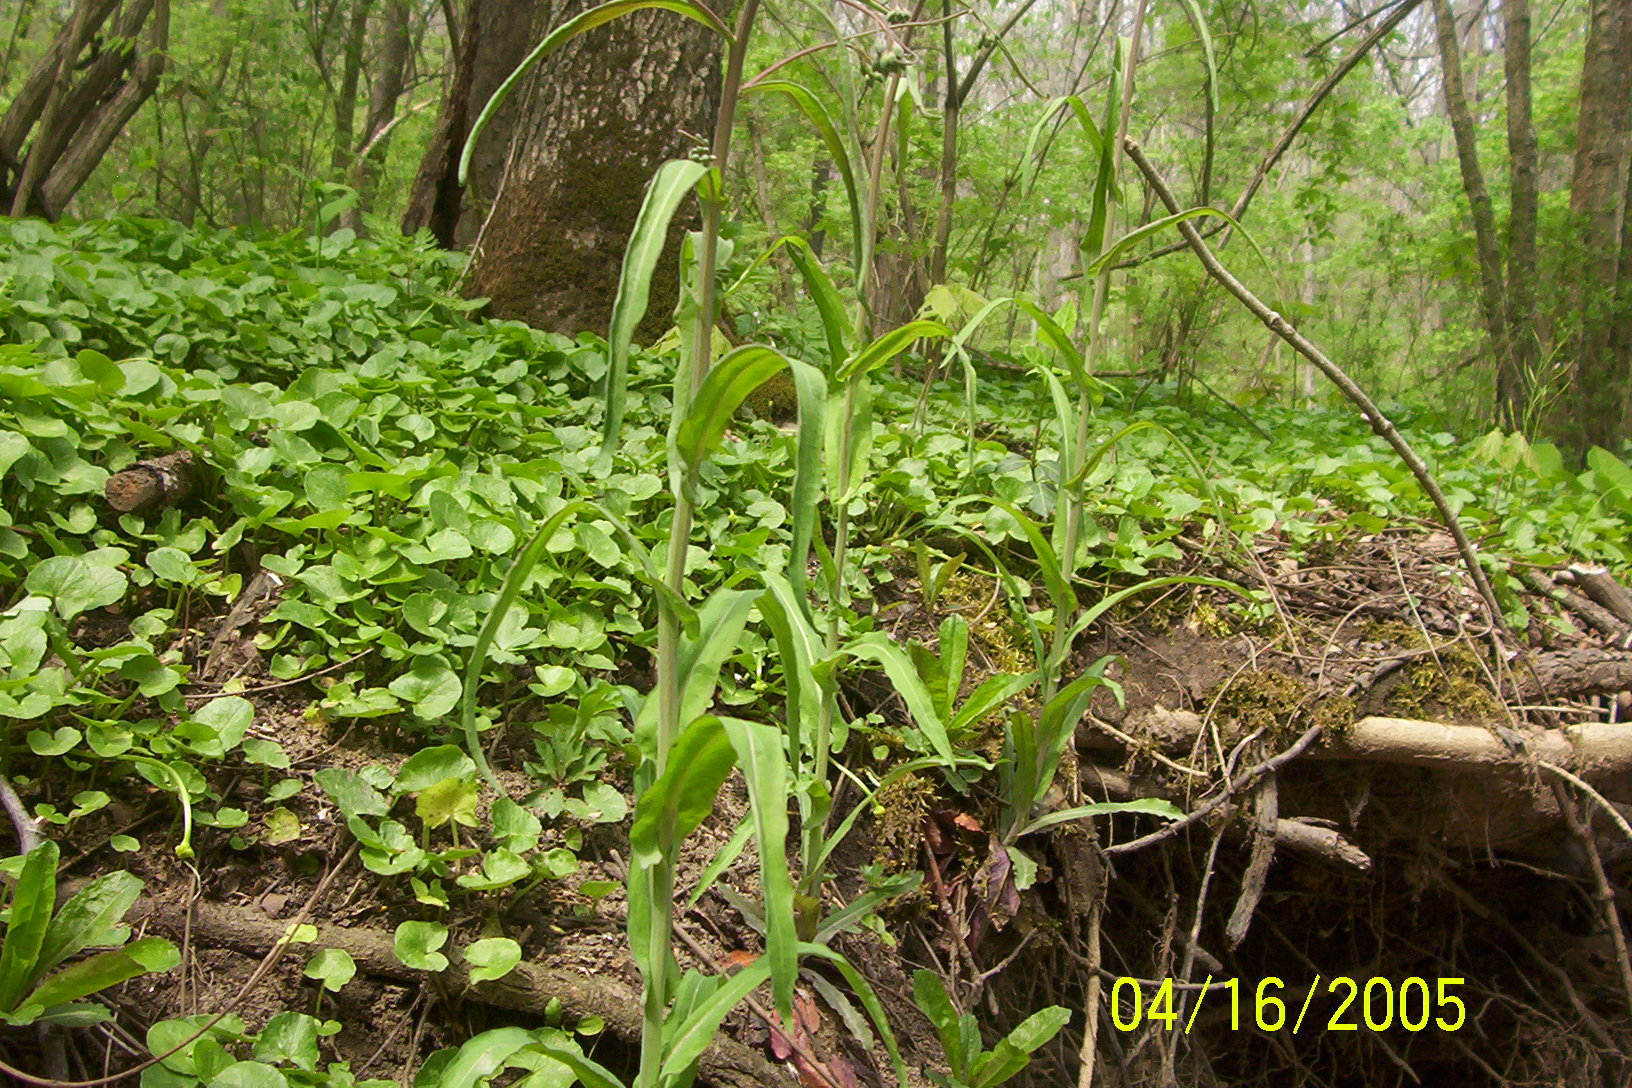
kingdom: Plantae
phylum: Tracheophyta
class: Magnoliopsida
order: Brassicales
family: Brassicaceae
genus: Borodinia
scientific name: Borodinia laevigata
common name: Smooth rockcress
